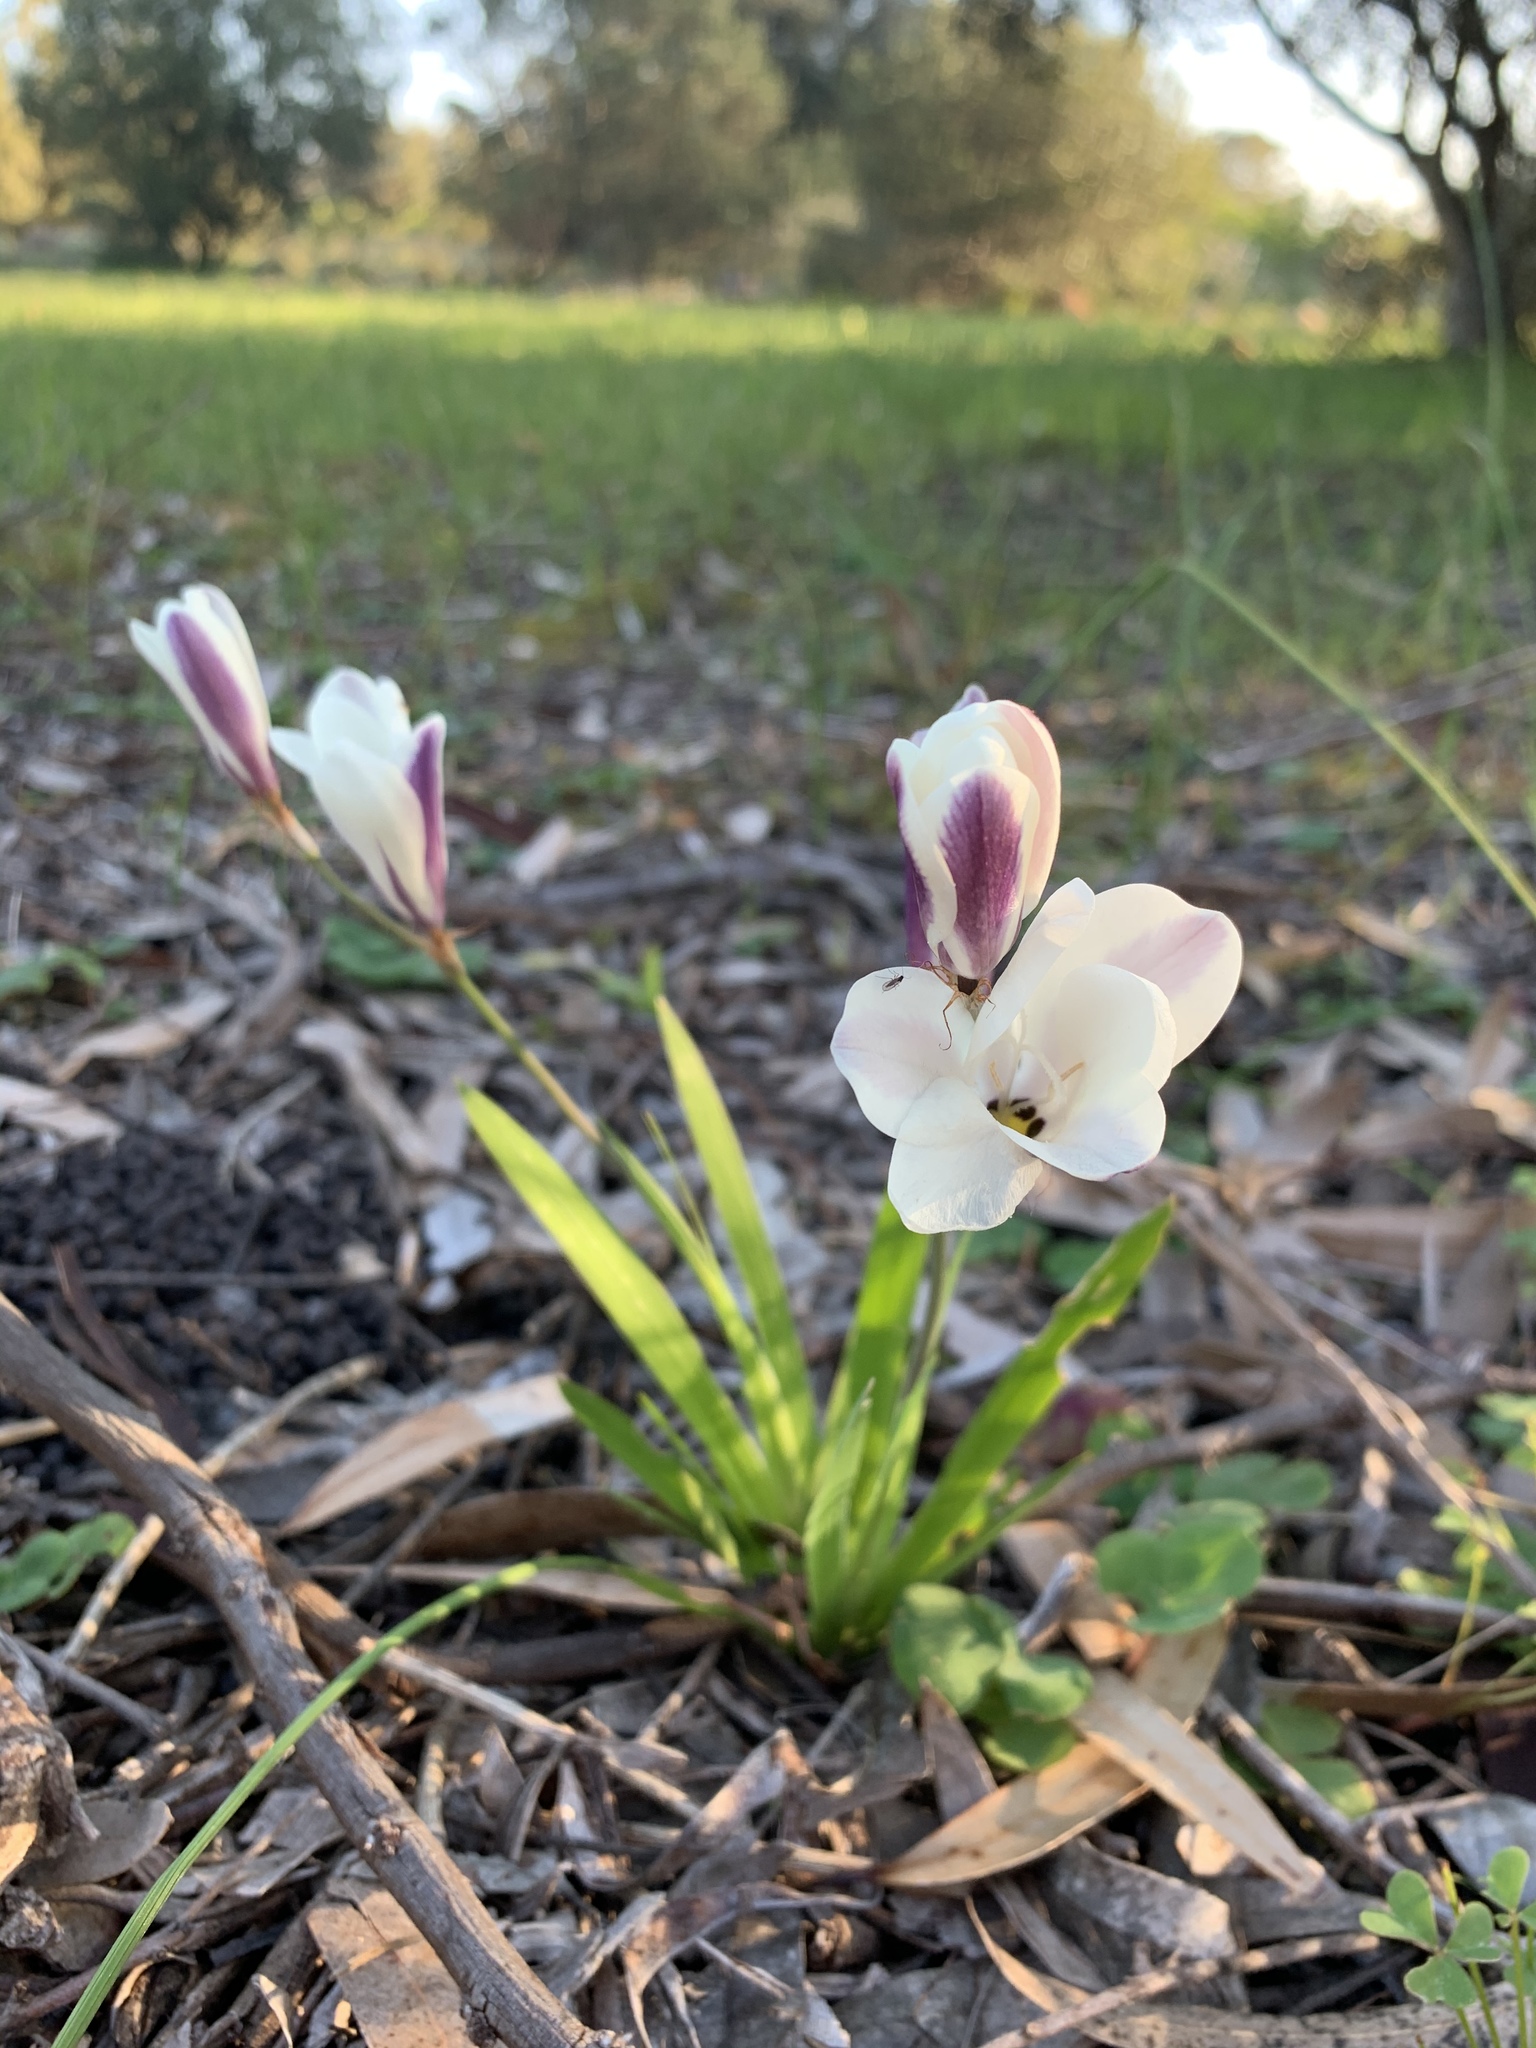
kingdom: Plantae
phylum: Tracheophyta
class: Liliopsida
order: Asparagales
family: Iridaceae
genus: Sparaxis
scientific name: Sparaxis grandiflora
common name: Plain harlequin-flower
